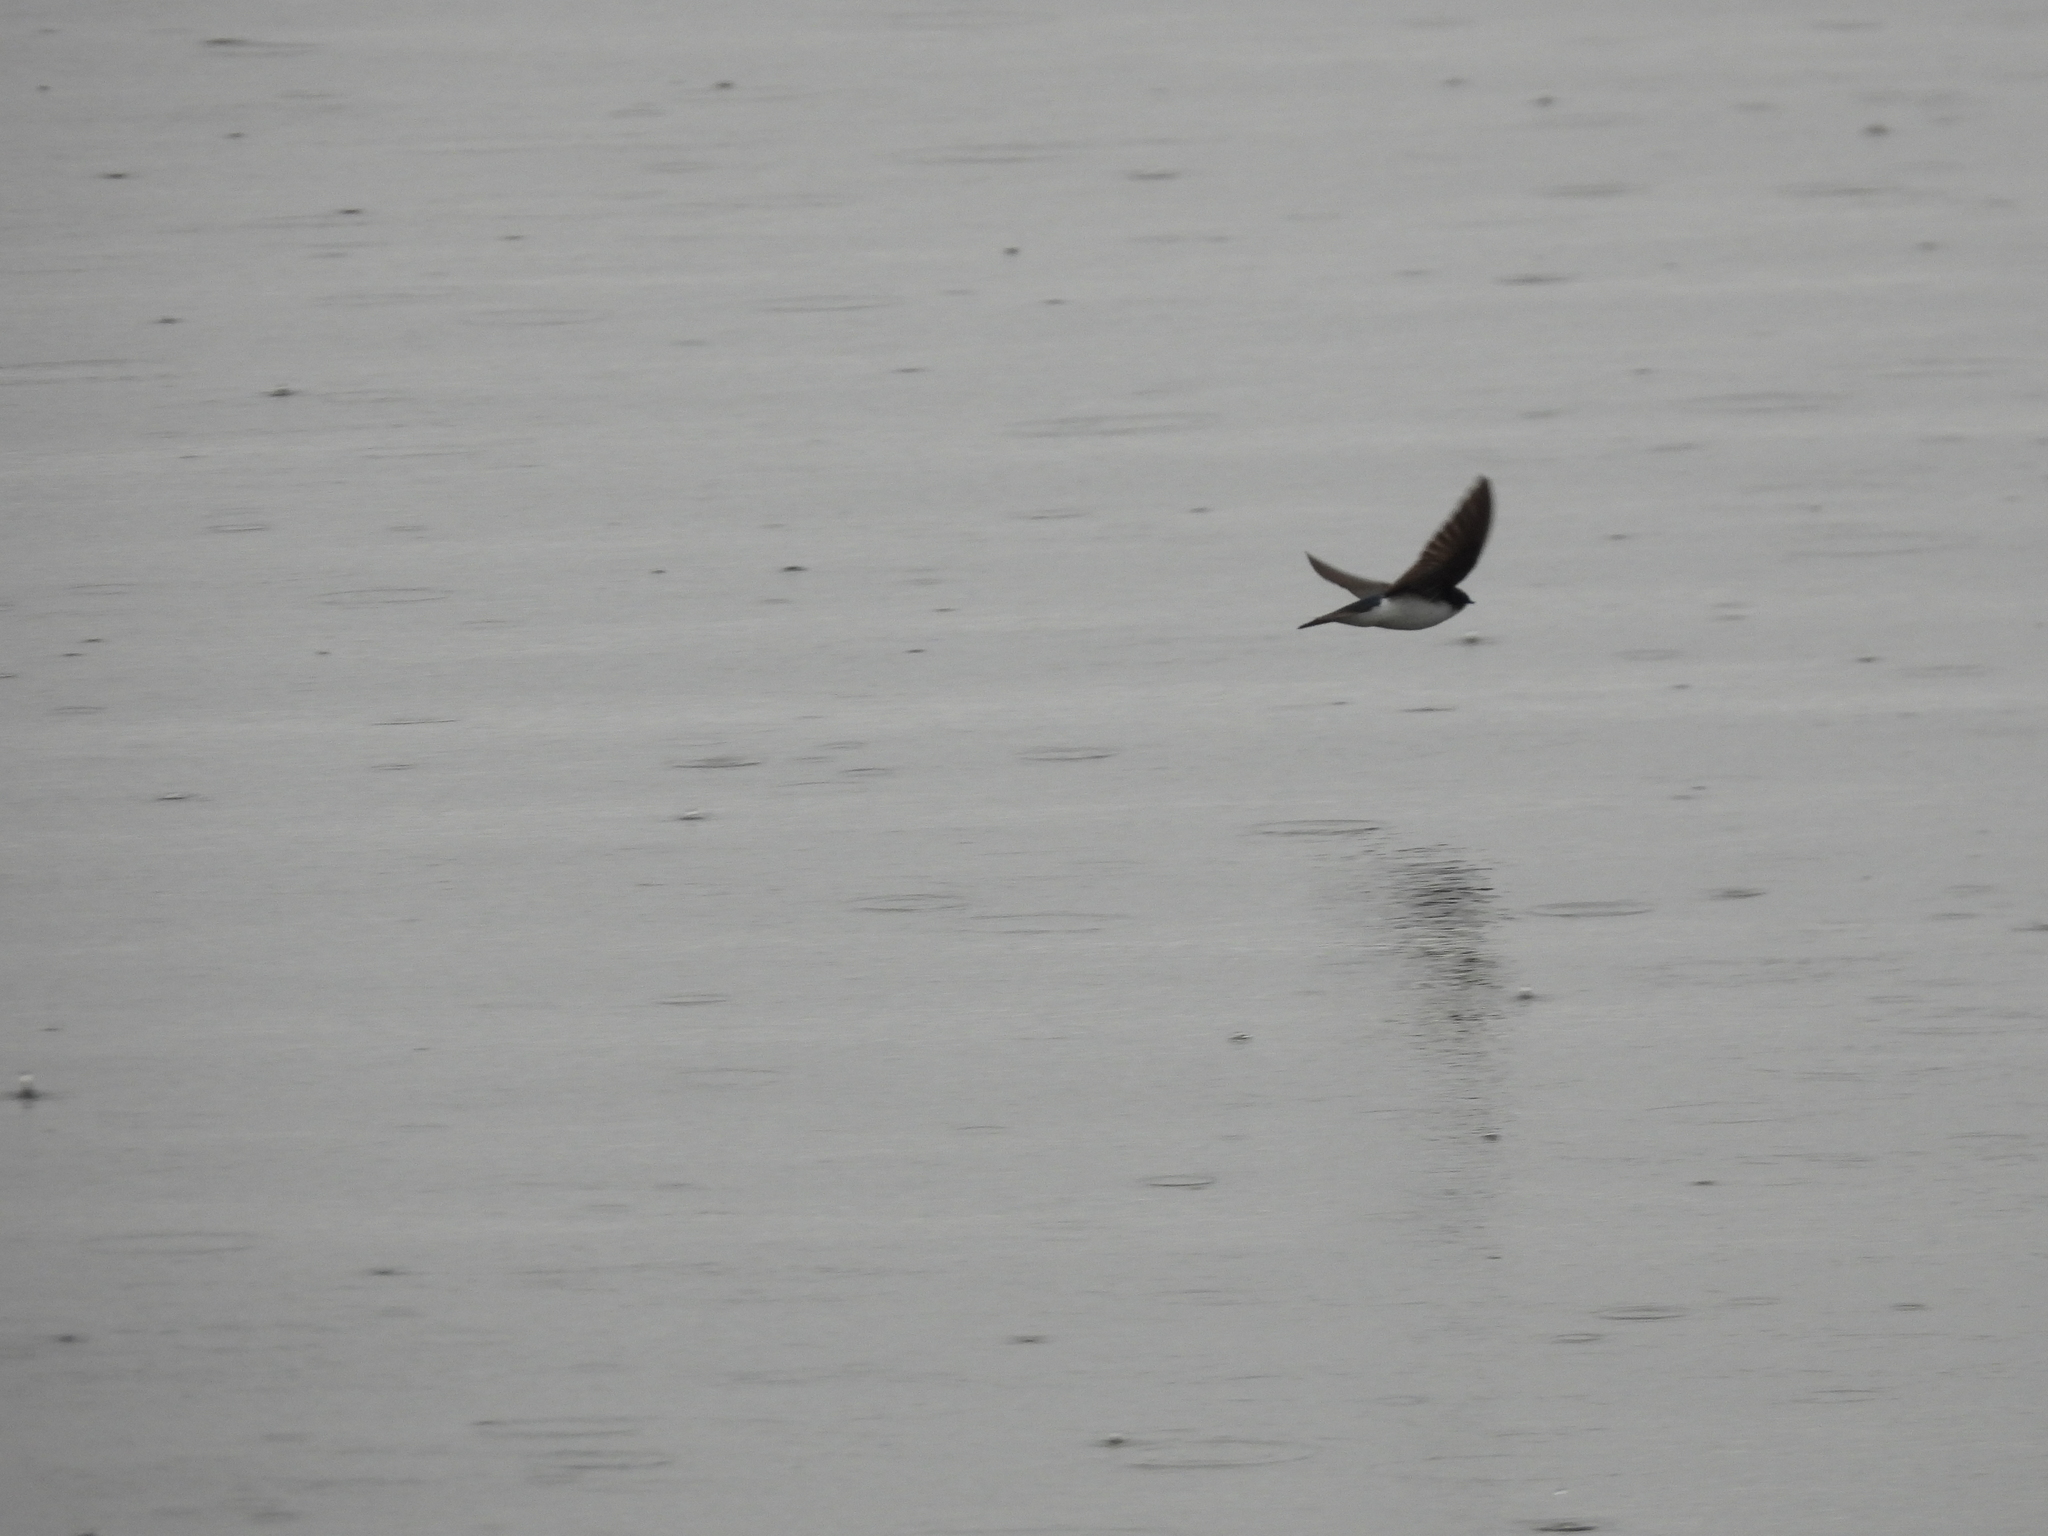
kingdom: Animalia
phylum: Chordata
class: Aves
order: Passeriformes
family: Hirundinidae
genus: Tachycineta
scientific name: Tachycineta bicolor
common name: Tree swallow
